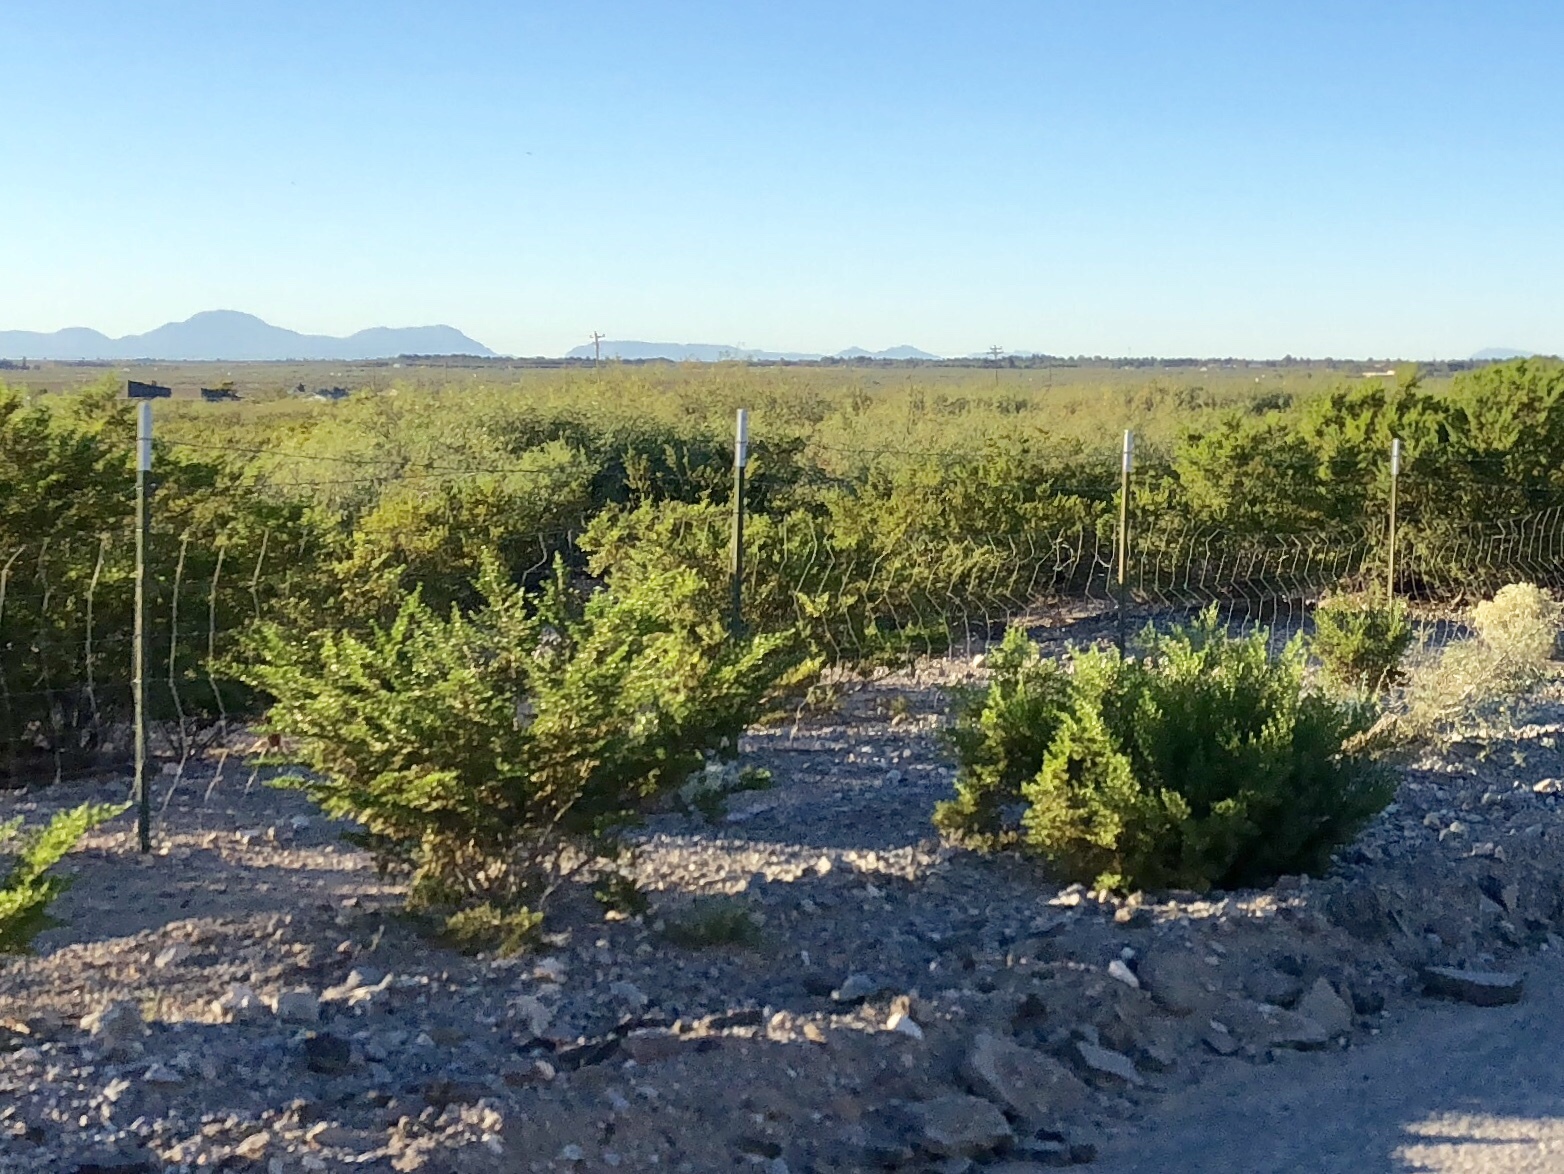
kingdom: Plantae
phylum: Tracheophyta
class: Magnoliopsida
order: Zygophyllales
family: Zygophyllaceae
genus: Larrea
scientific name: Larrea tridentata
